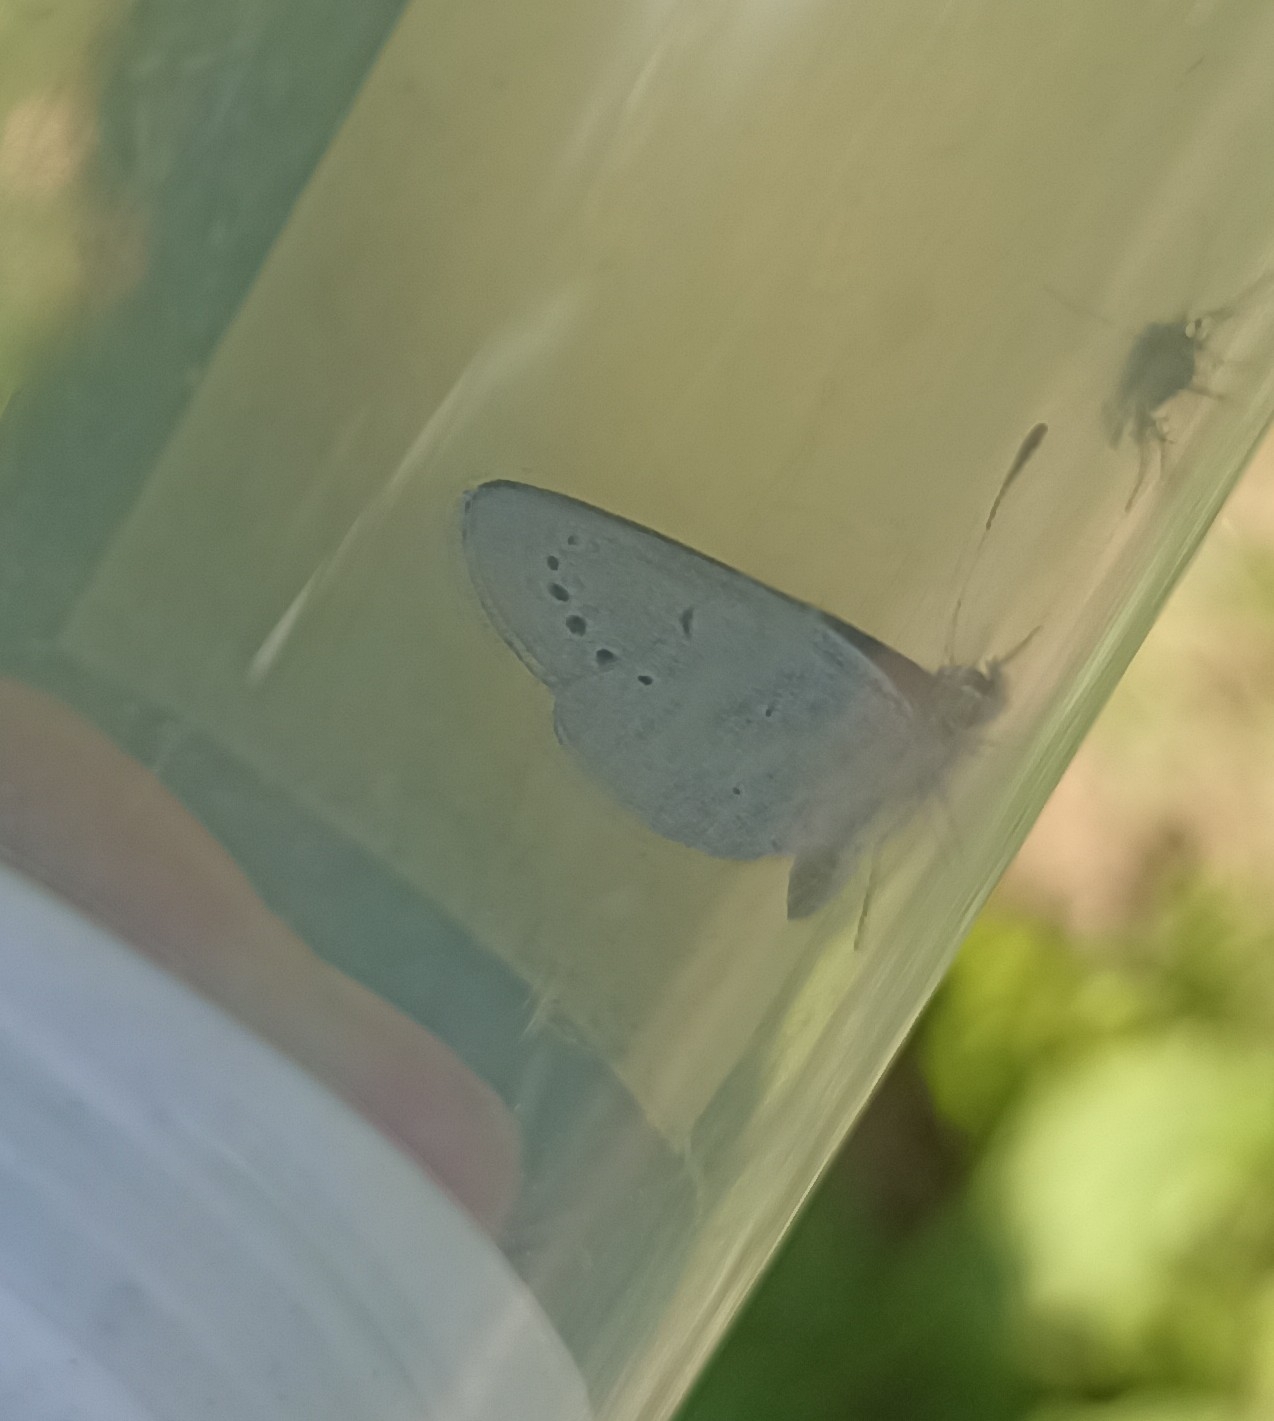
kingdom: Animalia
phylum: Arthropoda
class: Insecta
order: Lepidoptera
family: Lycaenidae
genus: Glaucopsyche
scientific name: Glaucopsyche alexis
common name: Green-underside blue
